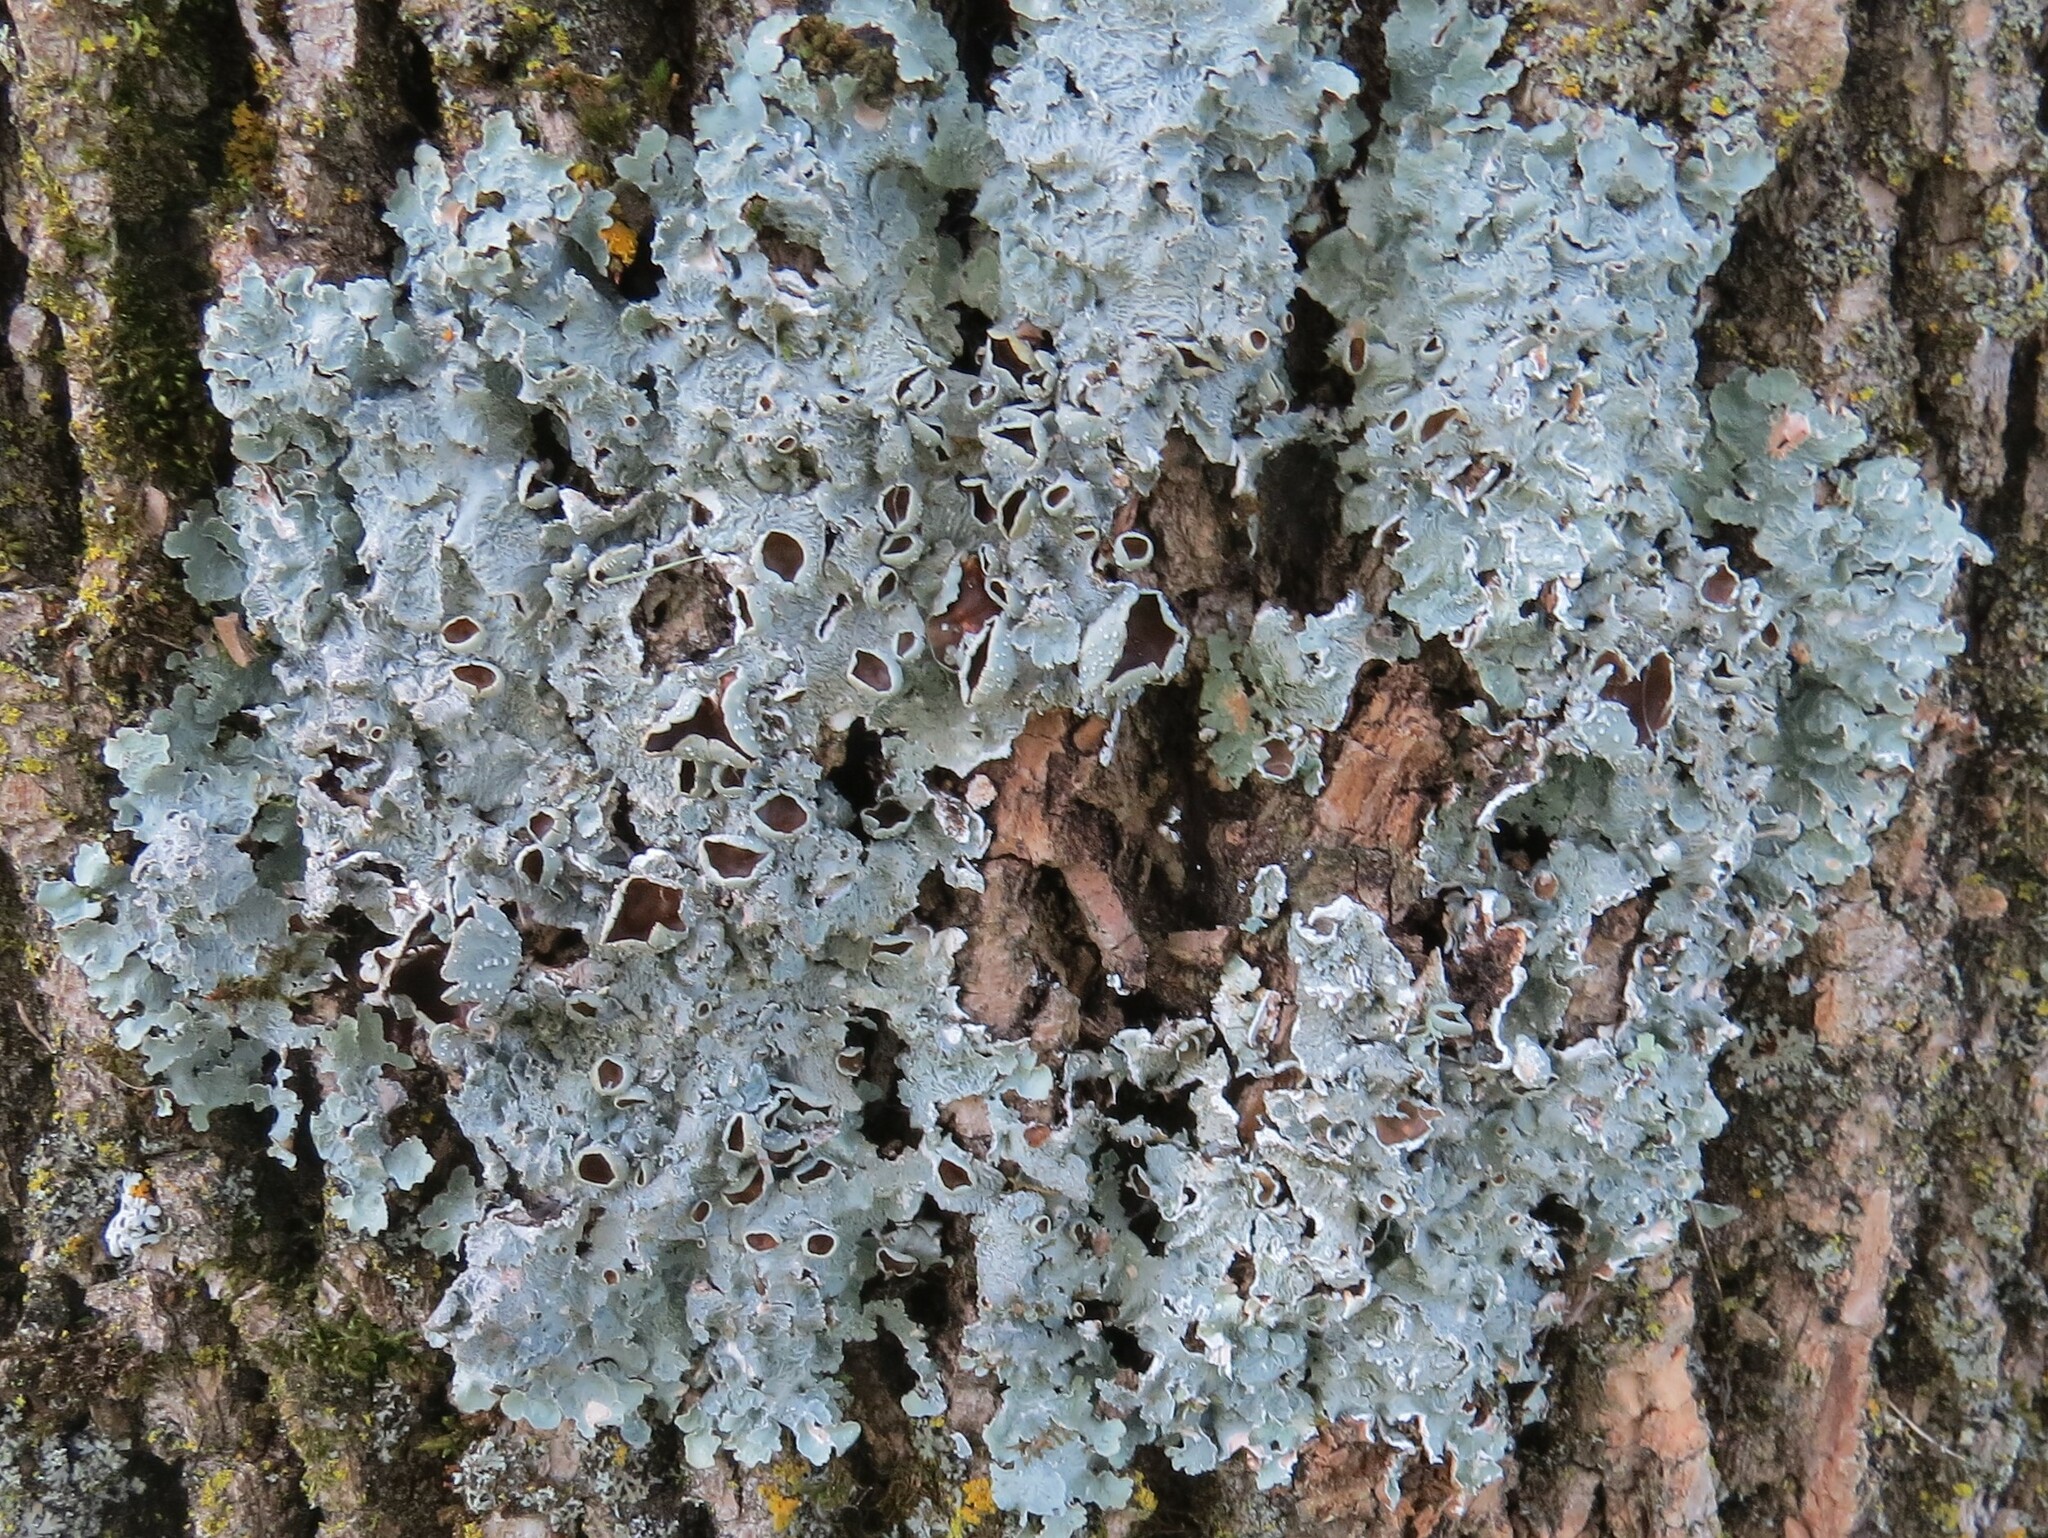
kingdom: Fungi
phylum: Ascomycota
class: Lecanoromycetes
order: Lecanorales
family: Parmeliaceae
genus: Punctelia
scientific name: Punctelia bolliana
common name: Eastern speckled shield lichen
